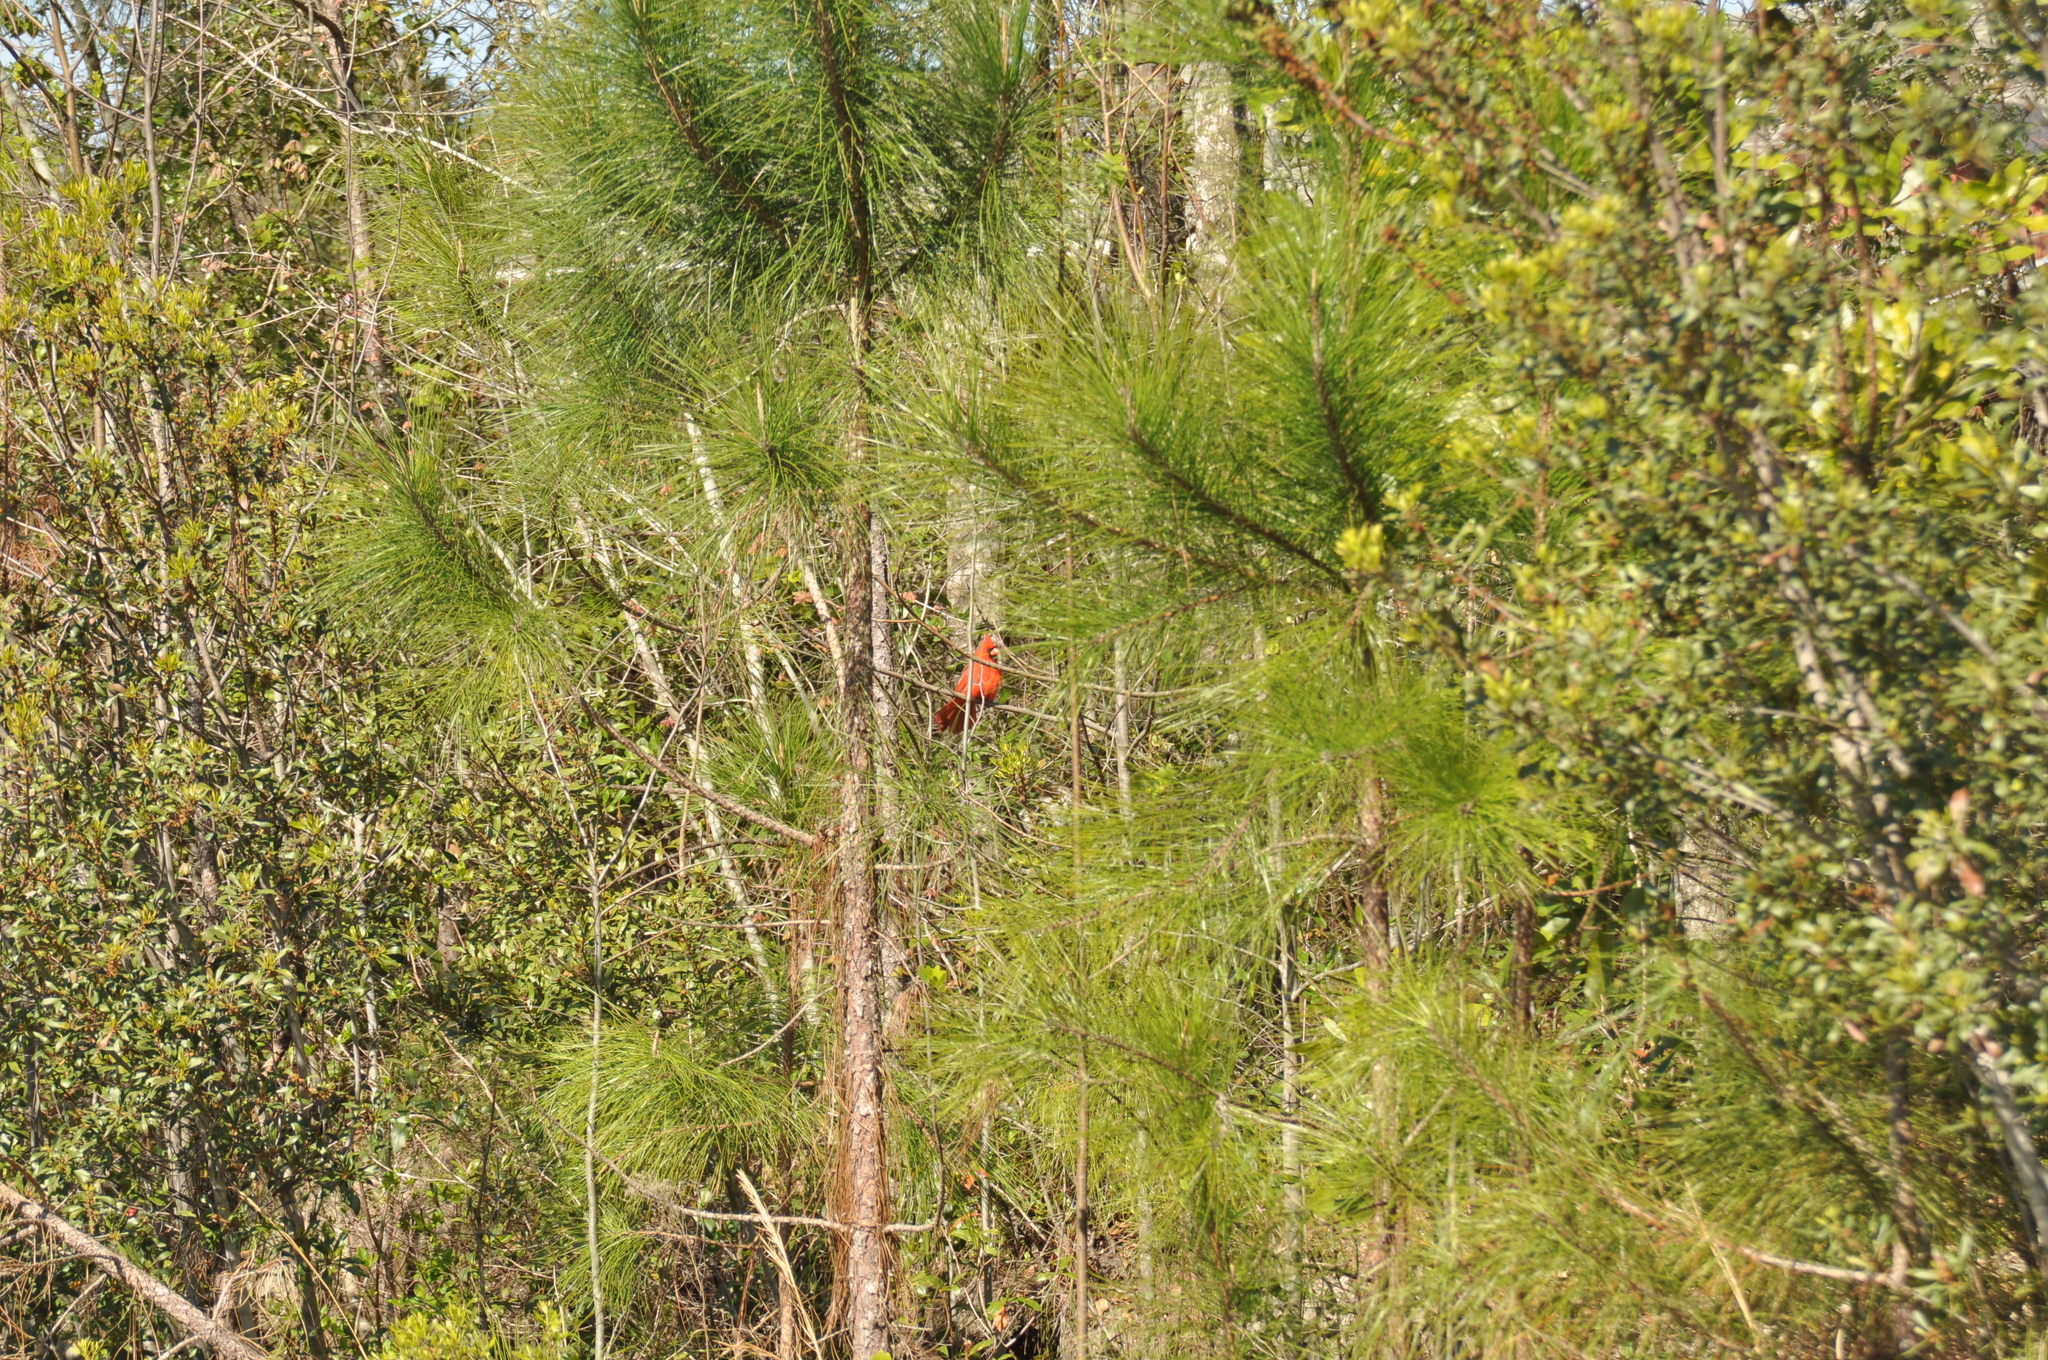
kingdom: Animalia
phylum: Chordata
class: Aves
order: Passeriformes
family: Cardinalidae
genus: Cardinalis
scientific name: Cardinalis cardinalis
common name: Northern cardinal
